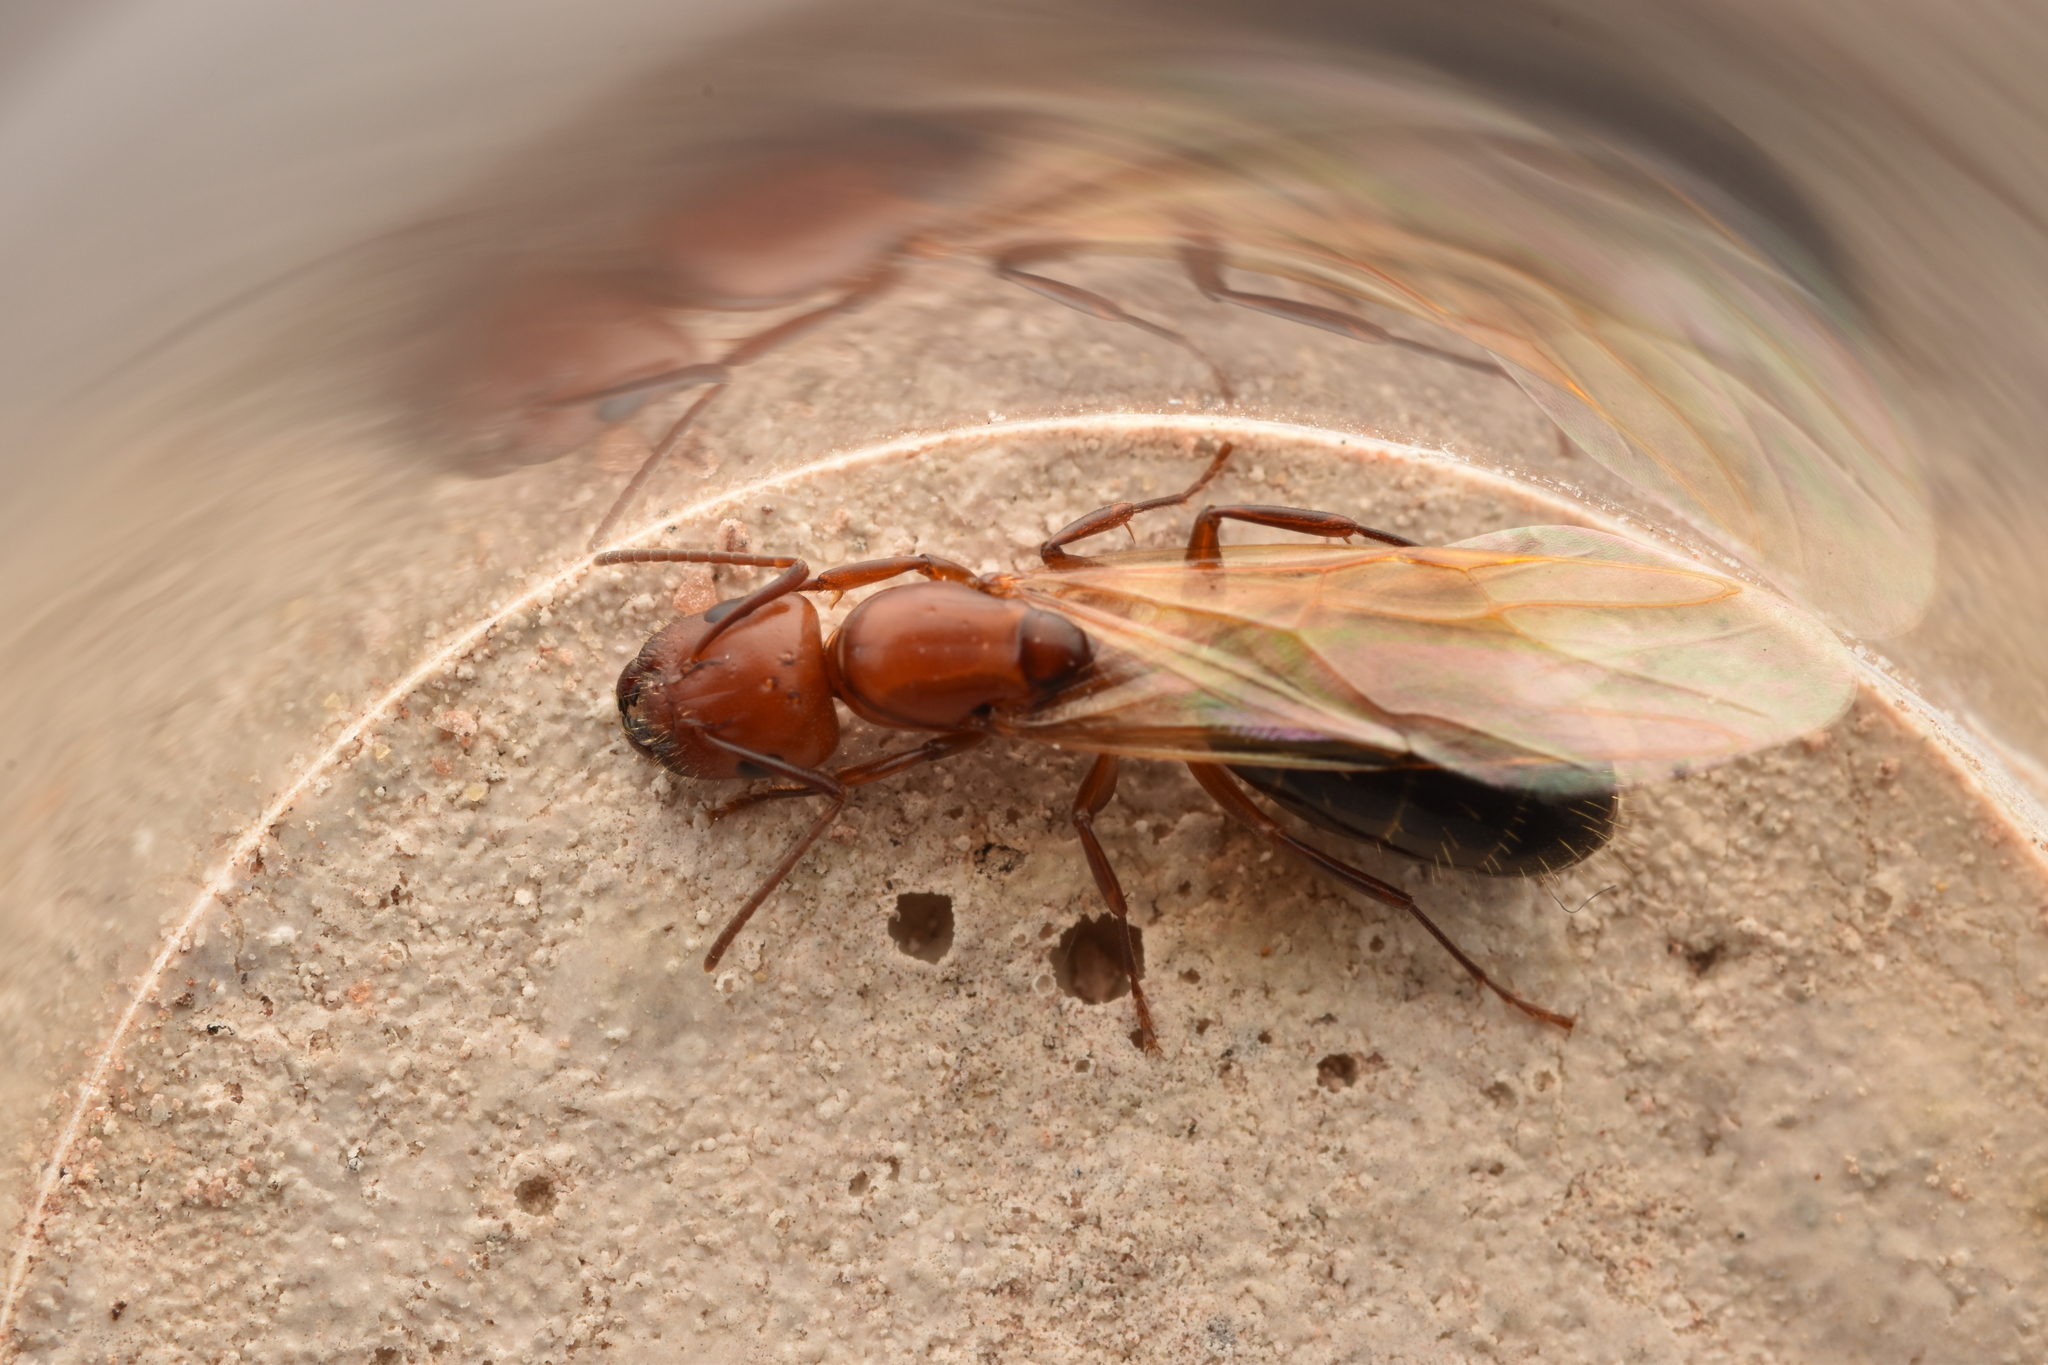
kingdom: Animalia
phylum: Arthropoda
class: Insecta
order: Hymenoptera
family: Formicidae
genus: Camponotus
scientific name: Camponotus discolor
